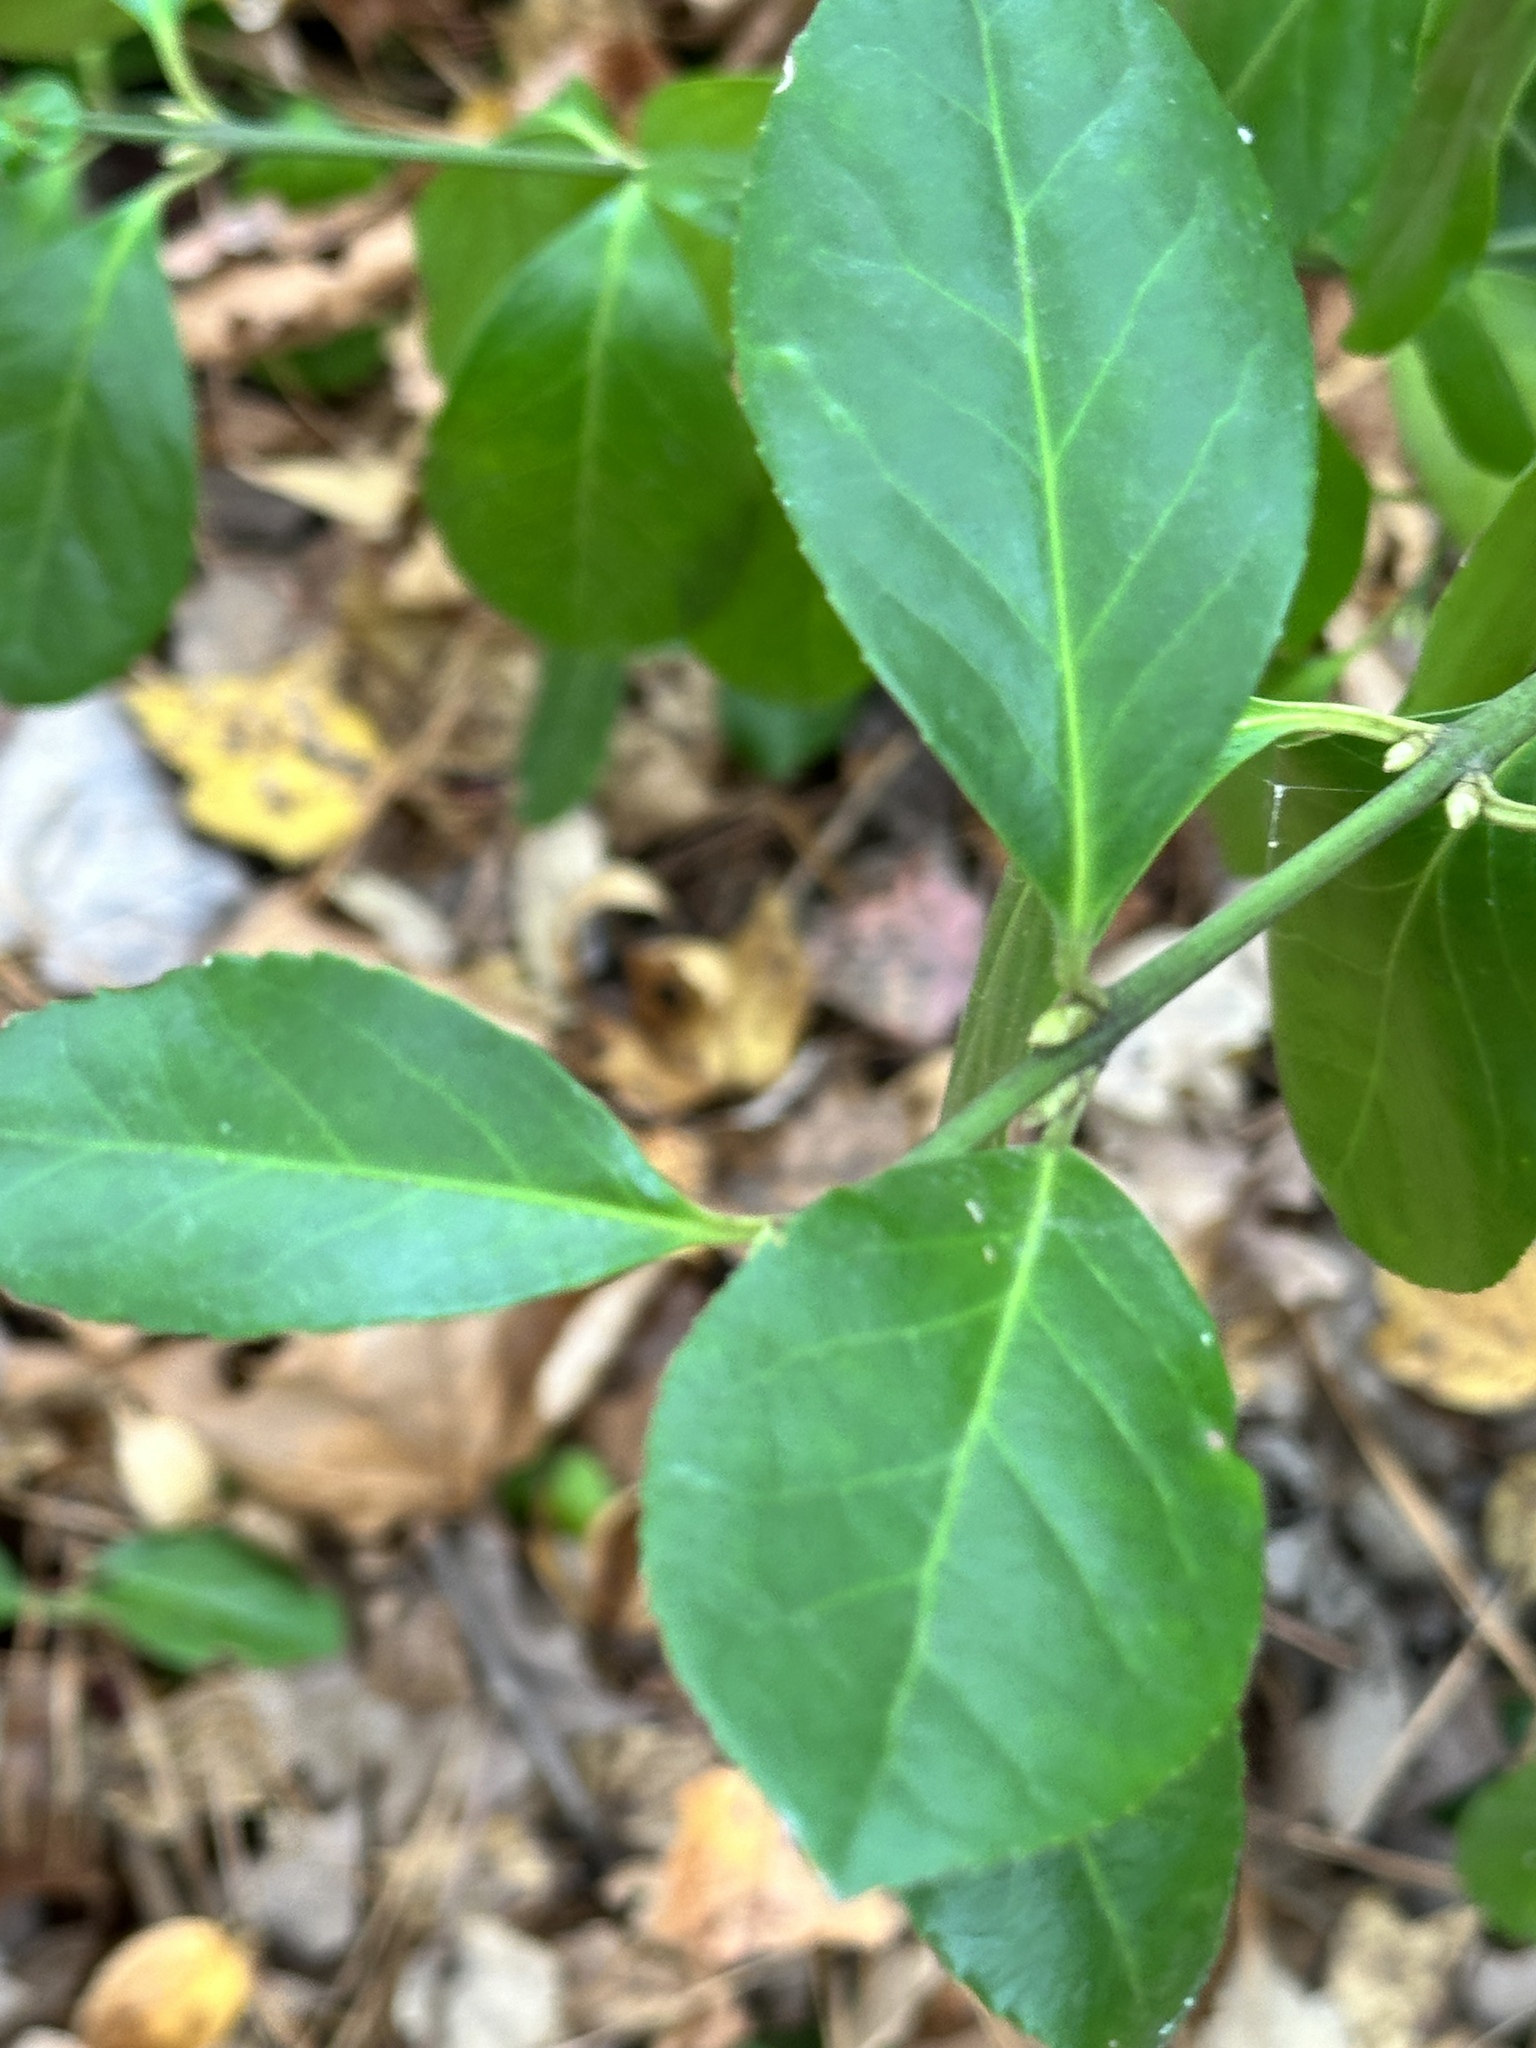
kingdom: Plantae
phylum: Tracheophyta
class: Magnoliopsida
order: Celastrales
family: Celastraceae
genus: Euonymus
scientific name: Euonymus fortunei
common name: Climbing euonymus
